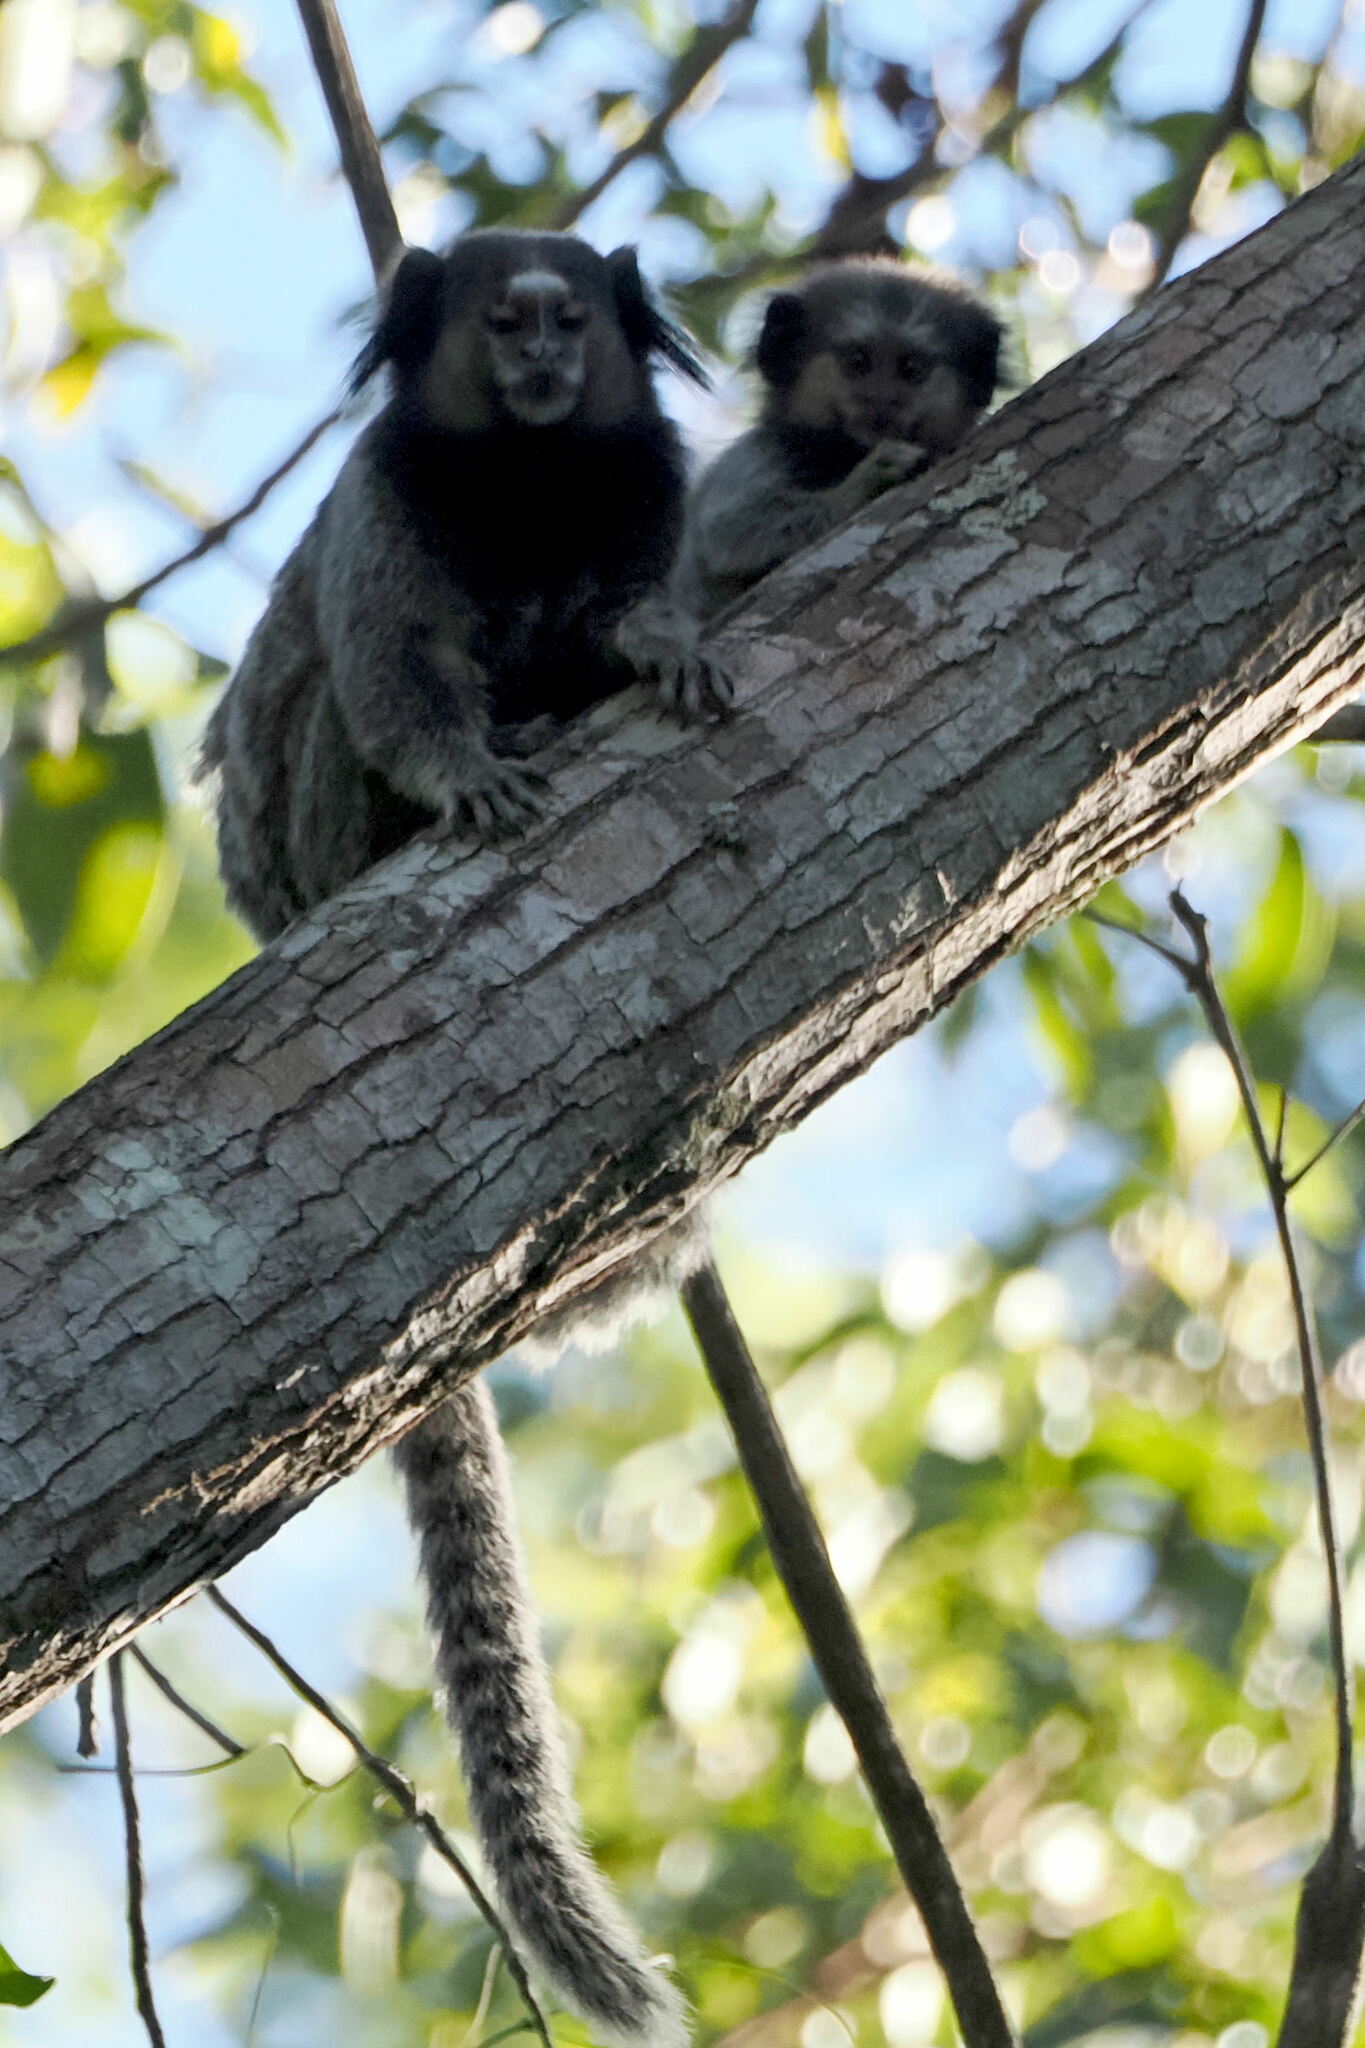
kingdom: Animalia
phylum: Chordata
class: Mammalia
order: Primates
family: Callitrichidae
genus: Callithrix
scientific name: Callithrix penicillata
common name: Black-tufted marmoset
